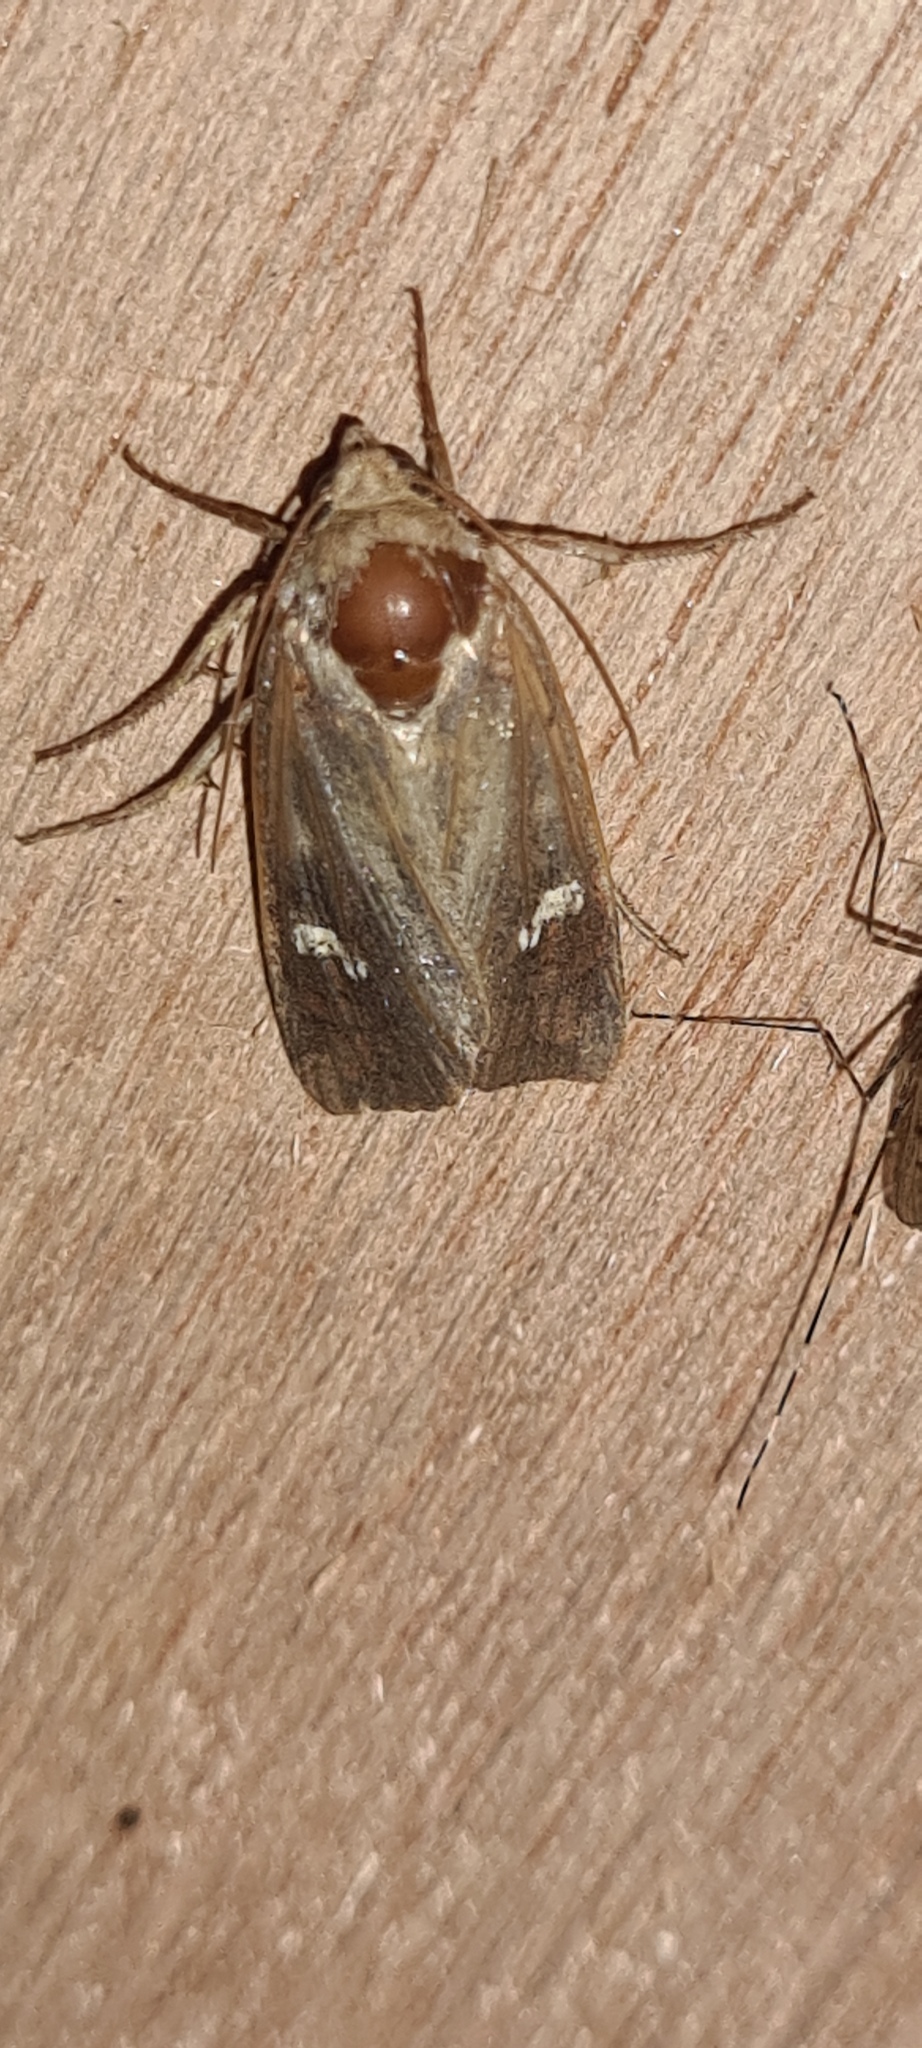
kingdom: Animalia
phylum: Arthropoda
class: Insecta
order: Lepidoptera
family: Noctuidae
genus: Helotropha
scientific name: Helotropha leucostigma
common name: The crescent
